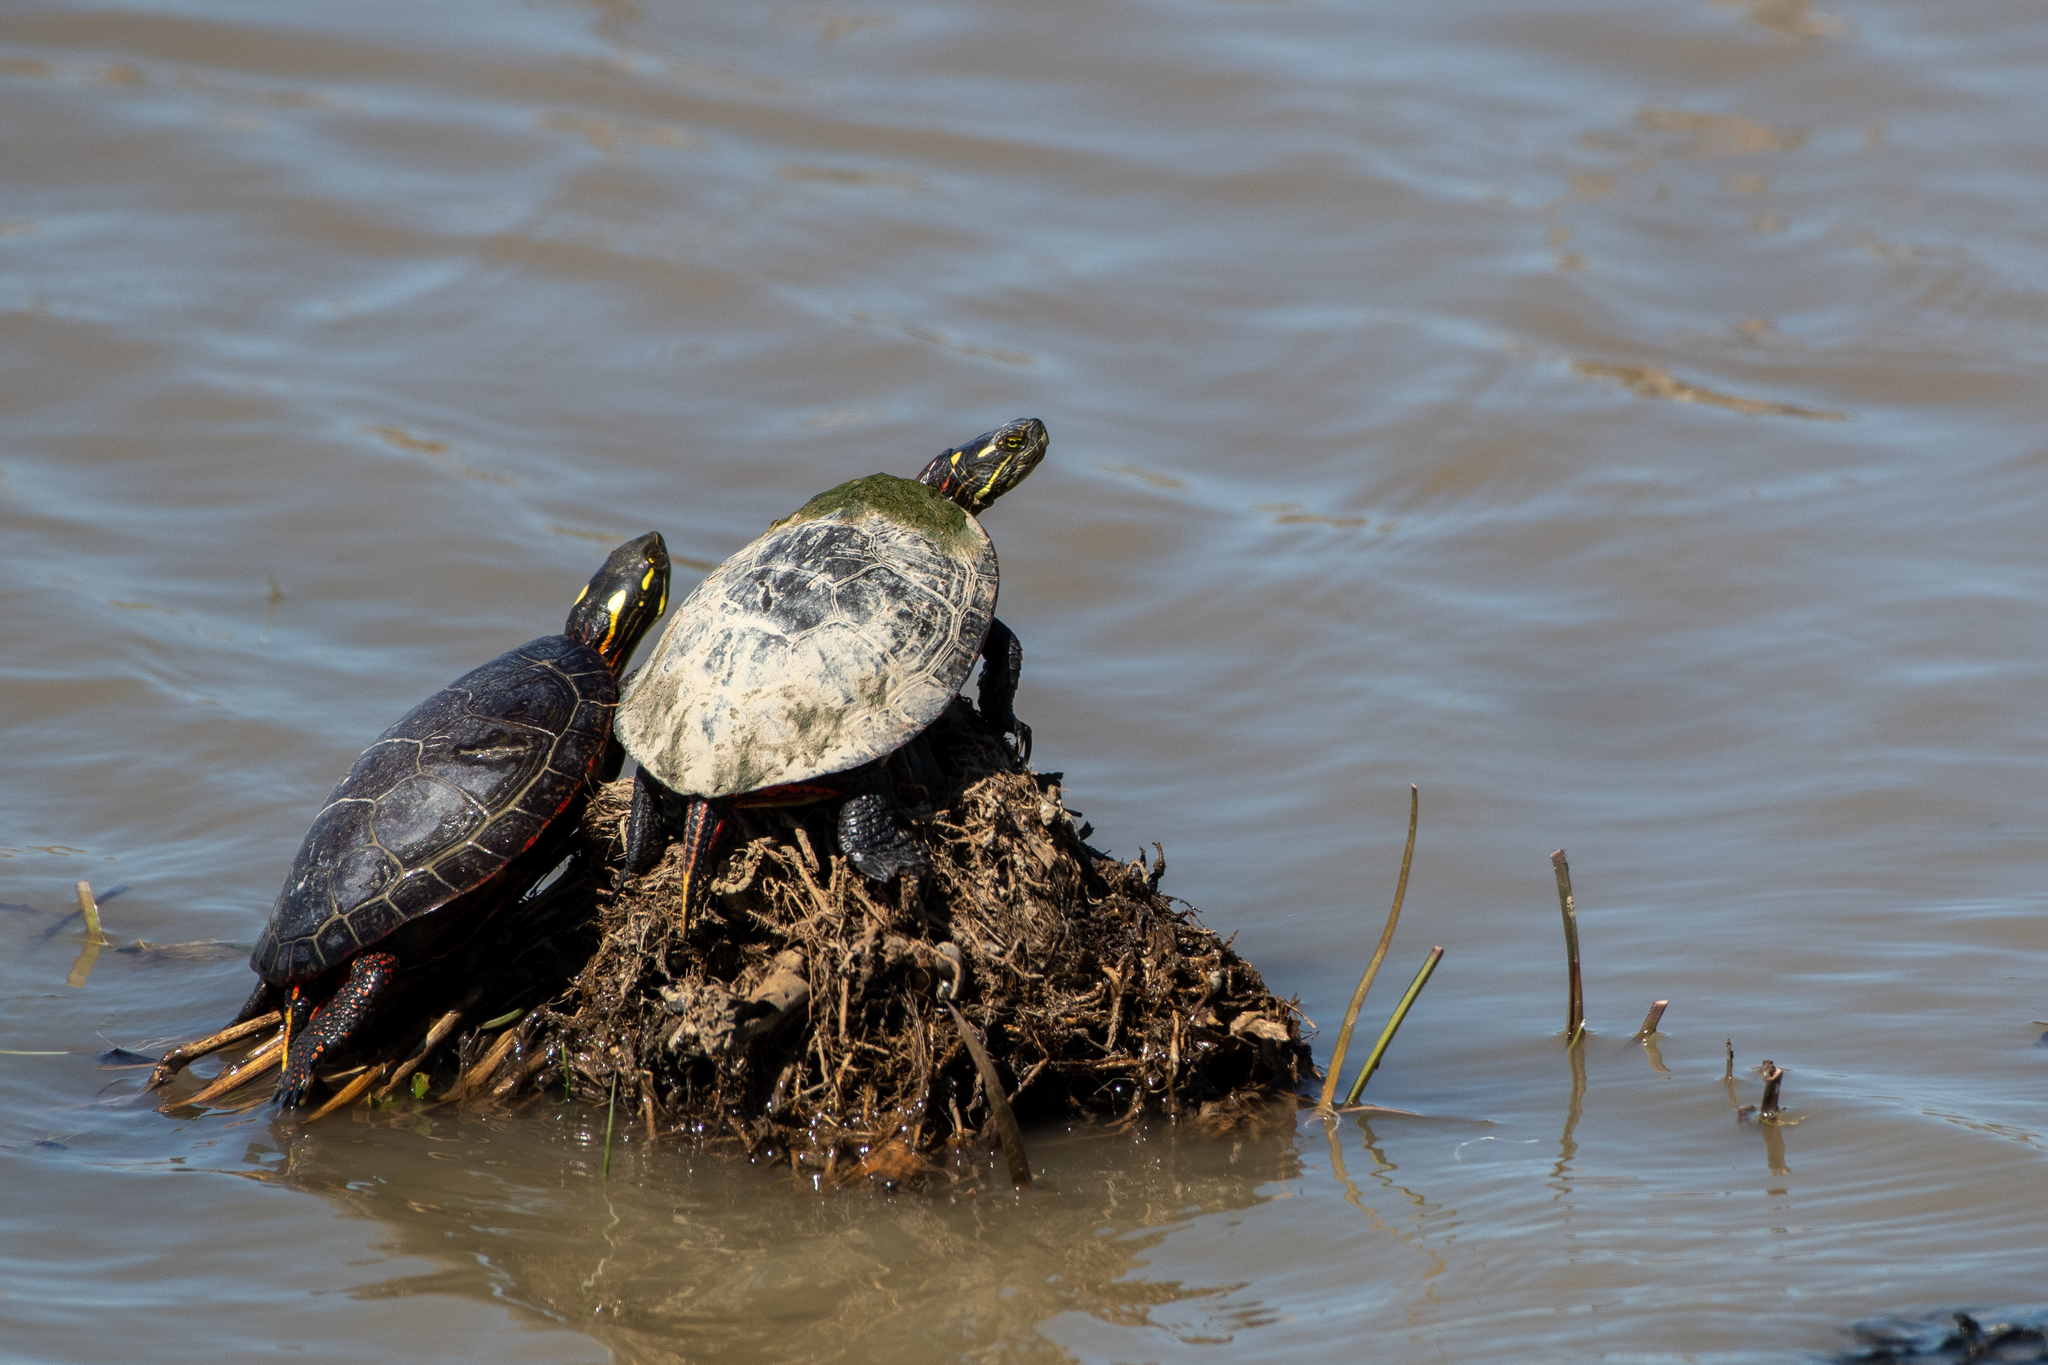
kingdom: Animalia
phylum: Chordata
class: Testudines
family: Emydidae
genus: Chrysemys
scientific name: Chrysemys picta
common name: Painted turtle
